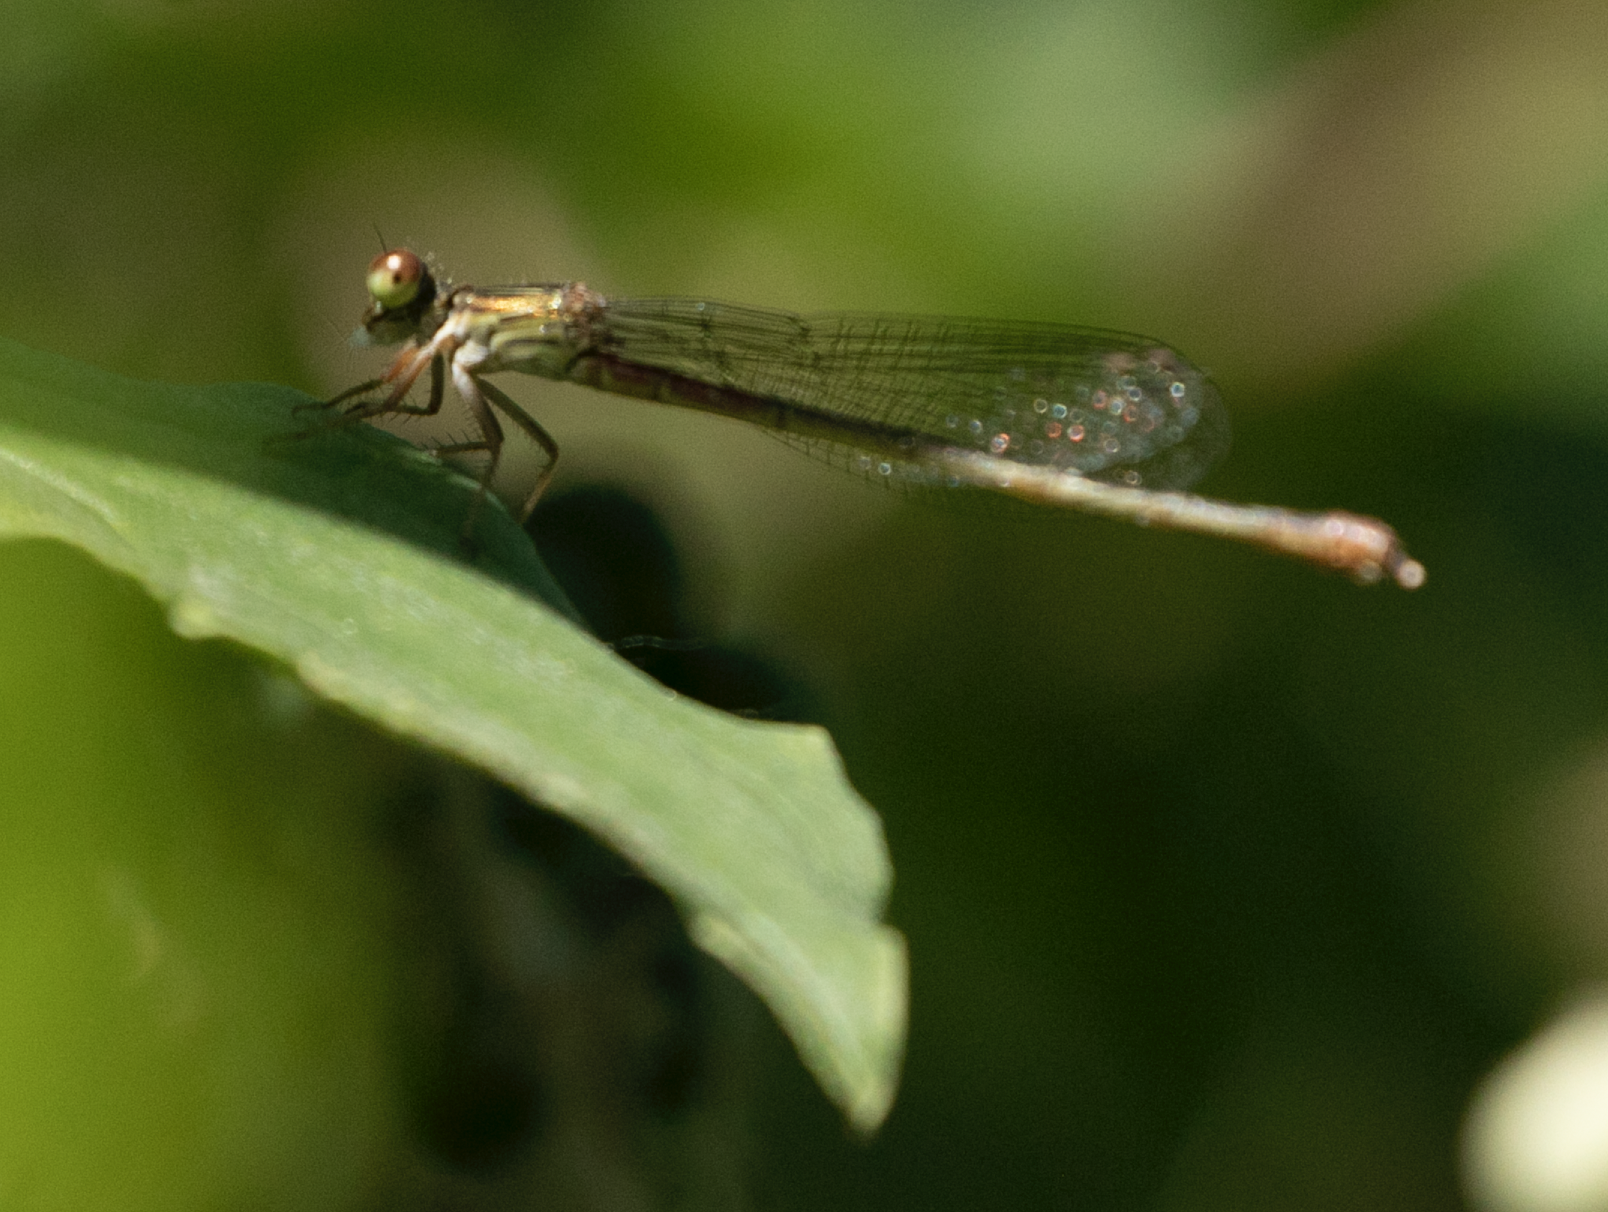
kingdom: Animalia
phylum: Arthropoda
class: Insecta
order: Odonata
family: Coenagrionidae
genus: Ceriagrion
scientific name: Ceriagrion tenellum
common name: Small red damselfly
